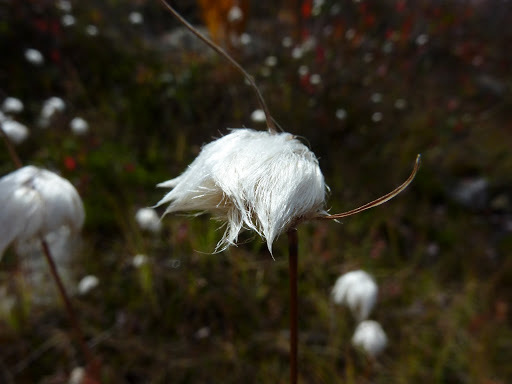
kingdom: Plantae
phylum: Tracheophyta
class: Liliopsida
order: Poales
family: Cyperaceae
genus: Eriophorum
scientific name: Eriophorum virginicum
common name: Tawny cottongrass
